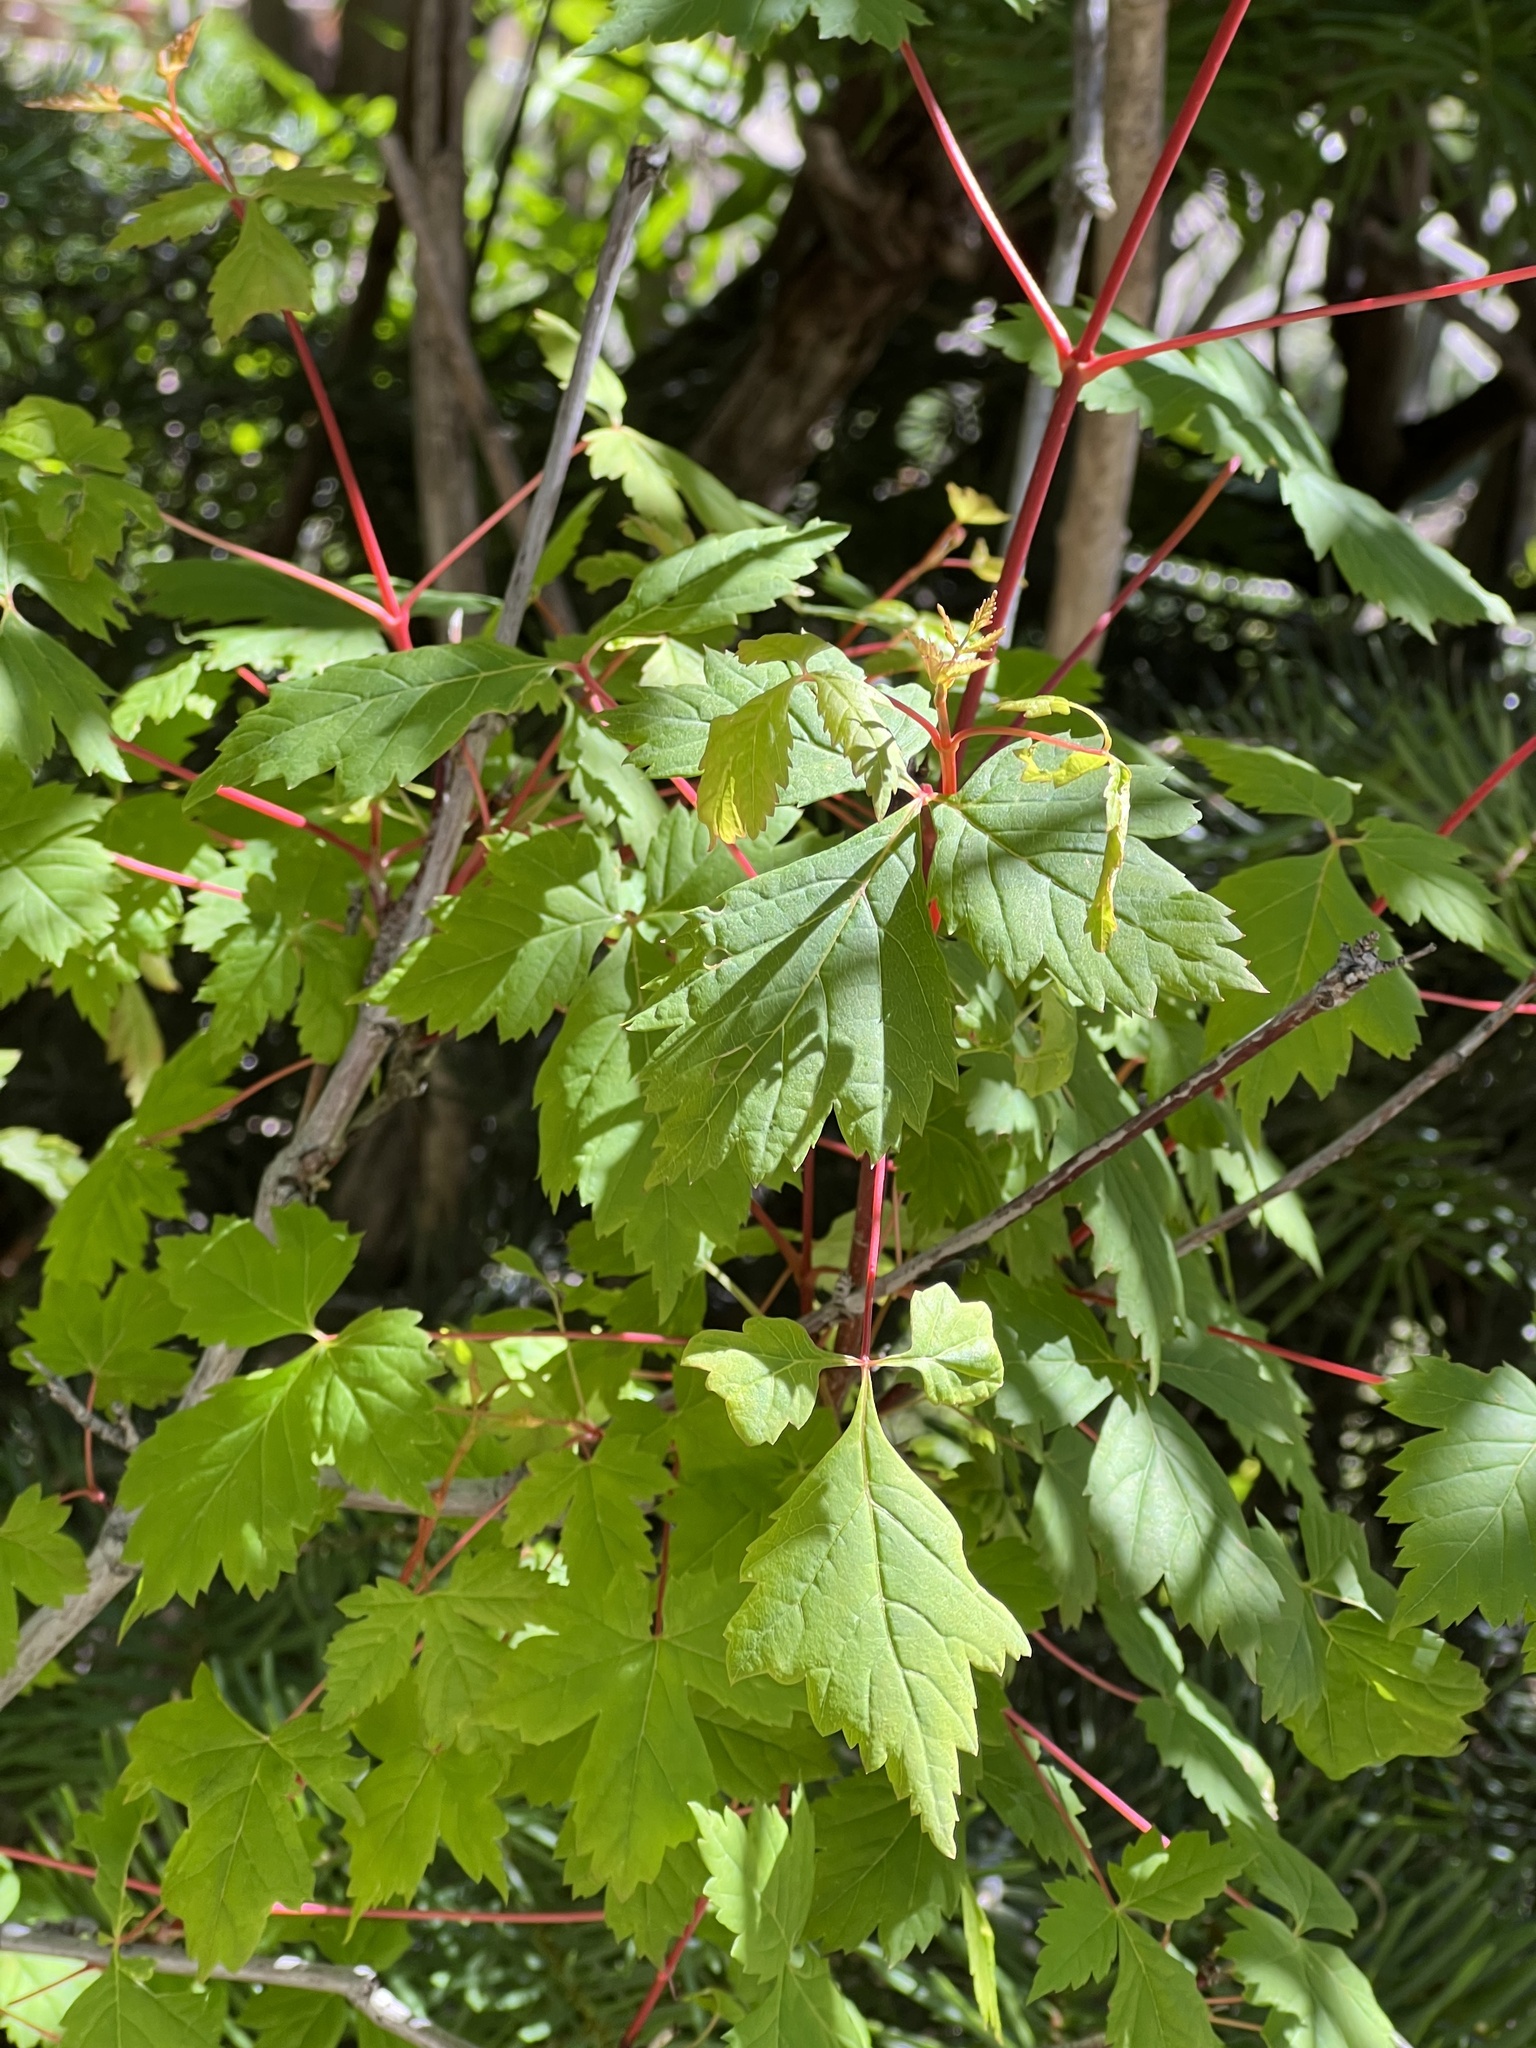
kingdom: Plantae
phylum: Tracheophyta
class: Magnoliopsida
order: Sapindales
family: Sapindaceae
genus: Acer
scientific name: Acer glabrum
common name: Rocky mountain maple
